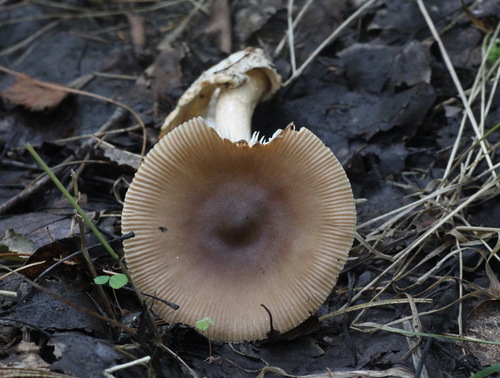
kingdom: Fungi
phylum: Basidiomycota
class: Agaricomycetes
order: Agaricales
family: Amanitaceae
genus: Amanita
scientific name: Amanita fulva
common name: Tawny grisette
